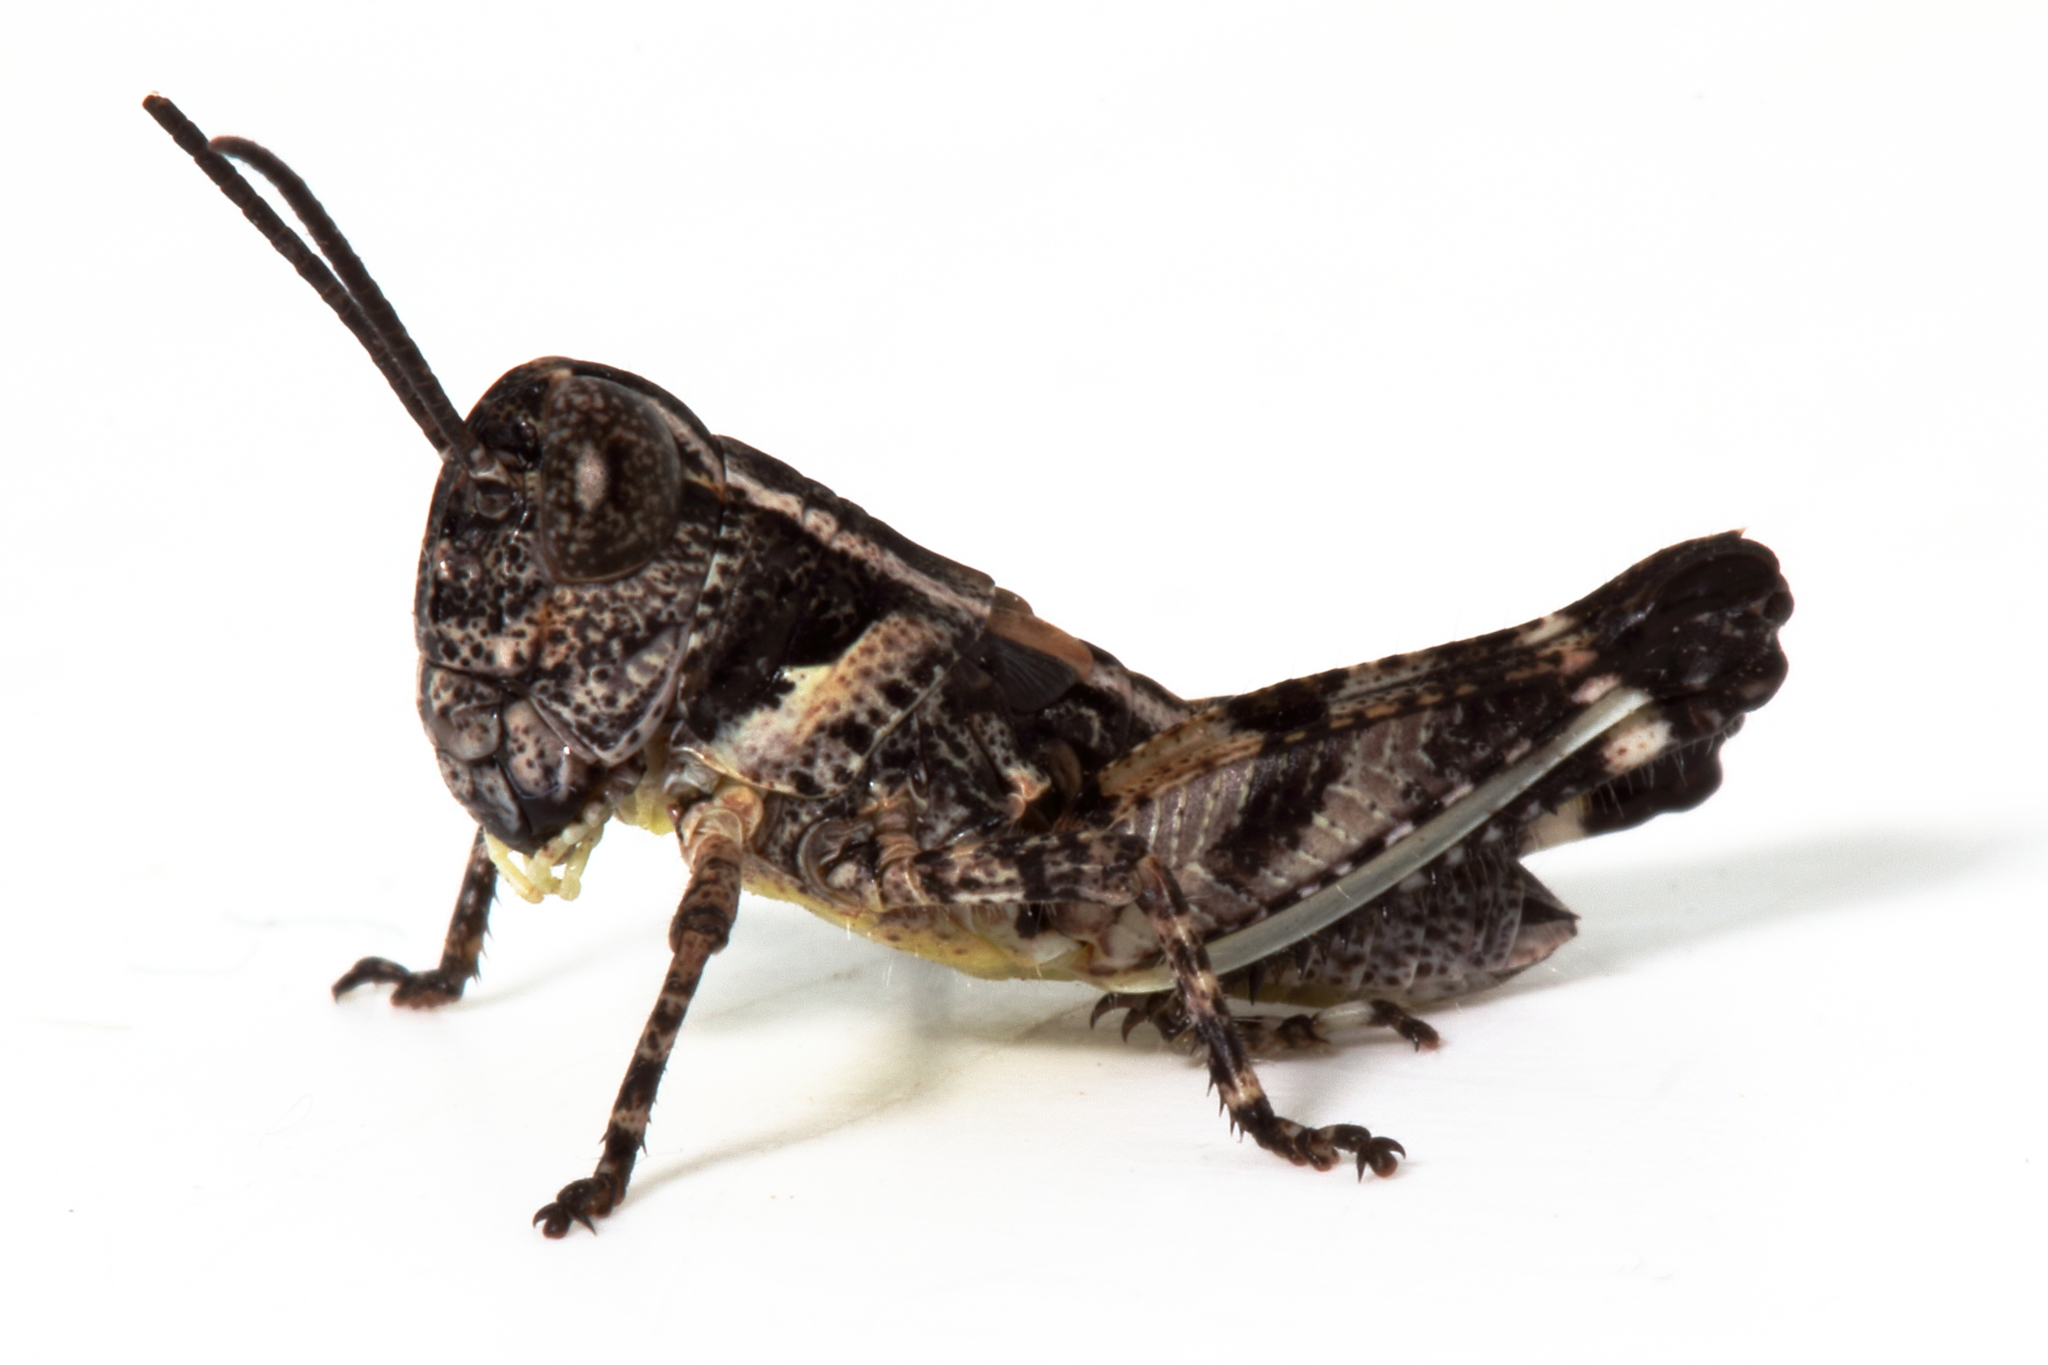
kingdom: Animalia
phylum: Arthropoda
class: Insecta
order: Orthoptera
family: Acrididae
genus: Brachyexarna
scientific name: Brachyexarna lobipennis
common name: Stripe-winged meadow grasshopper
